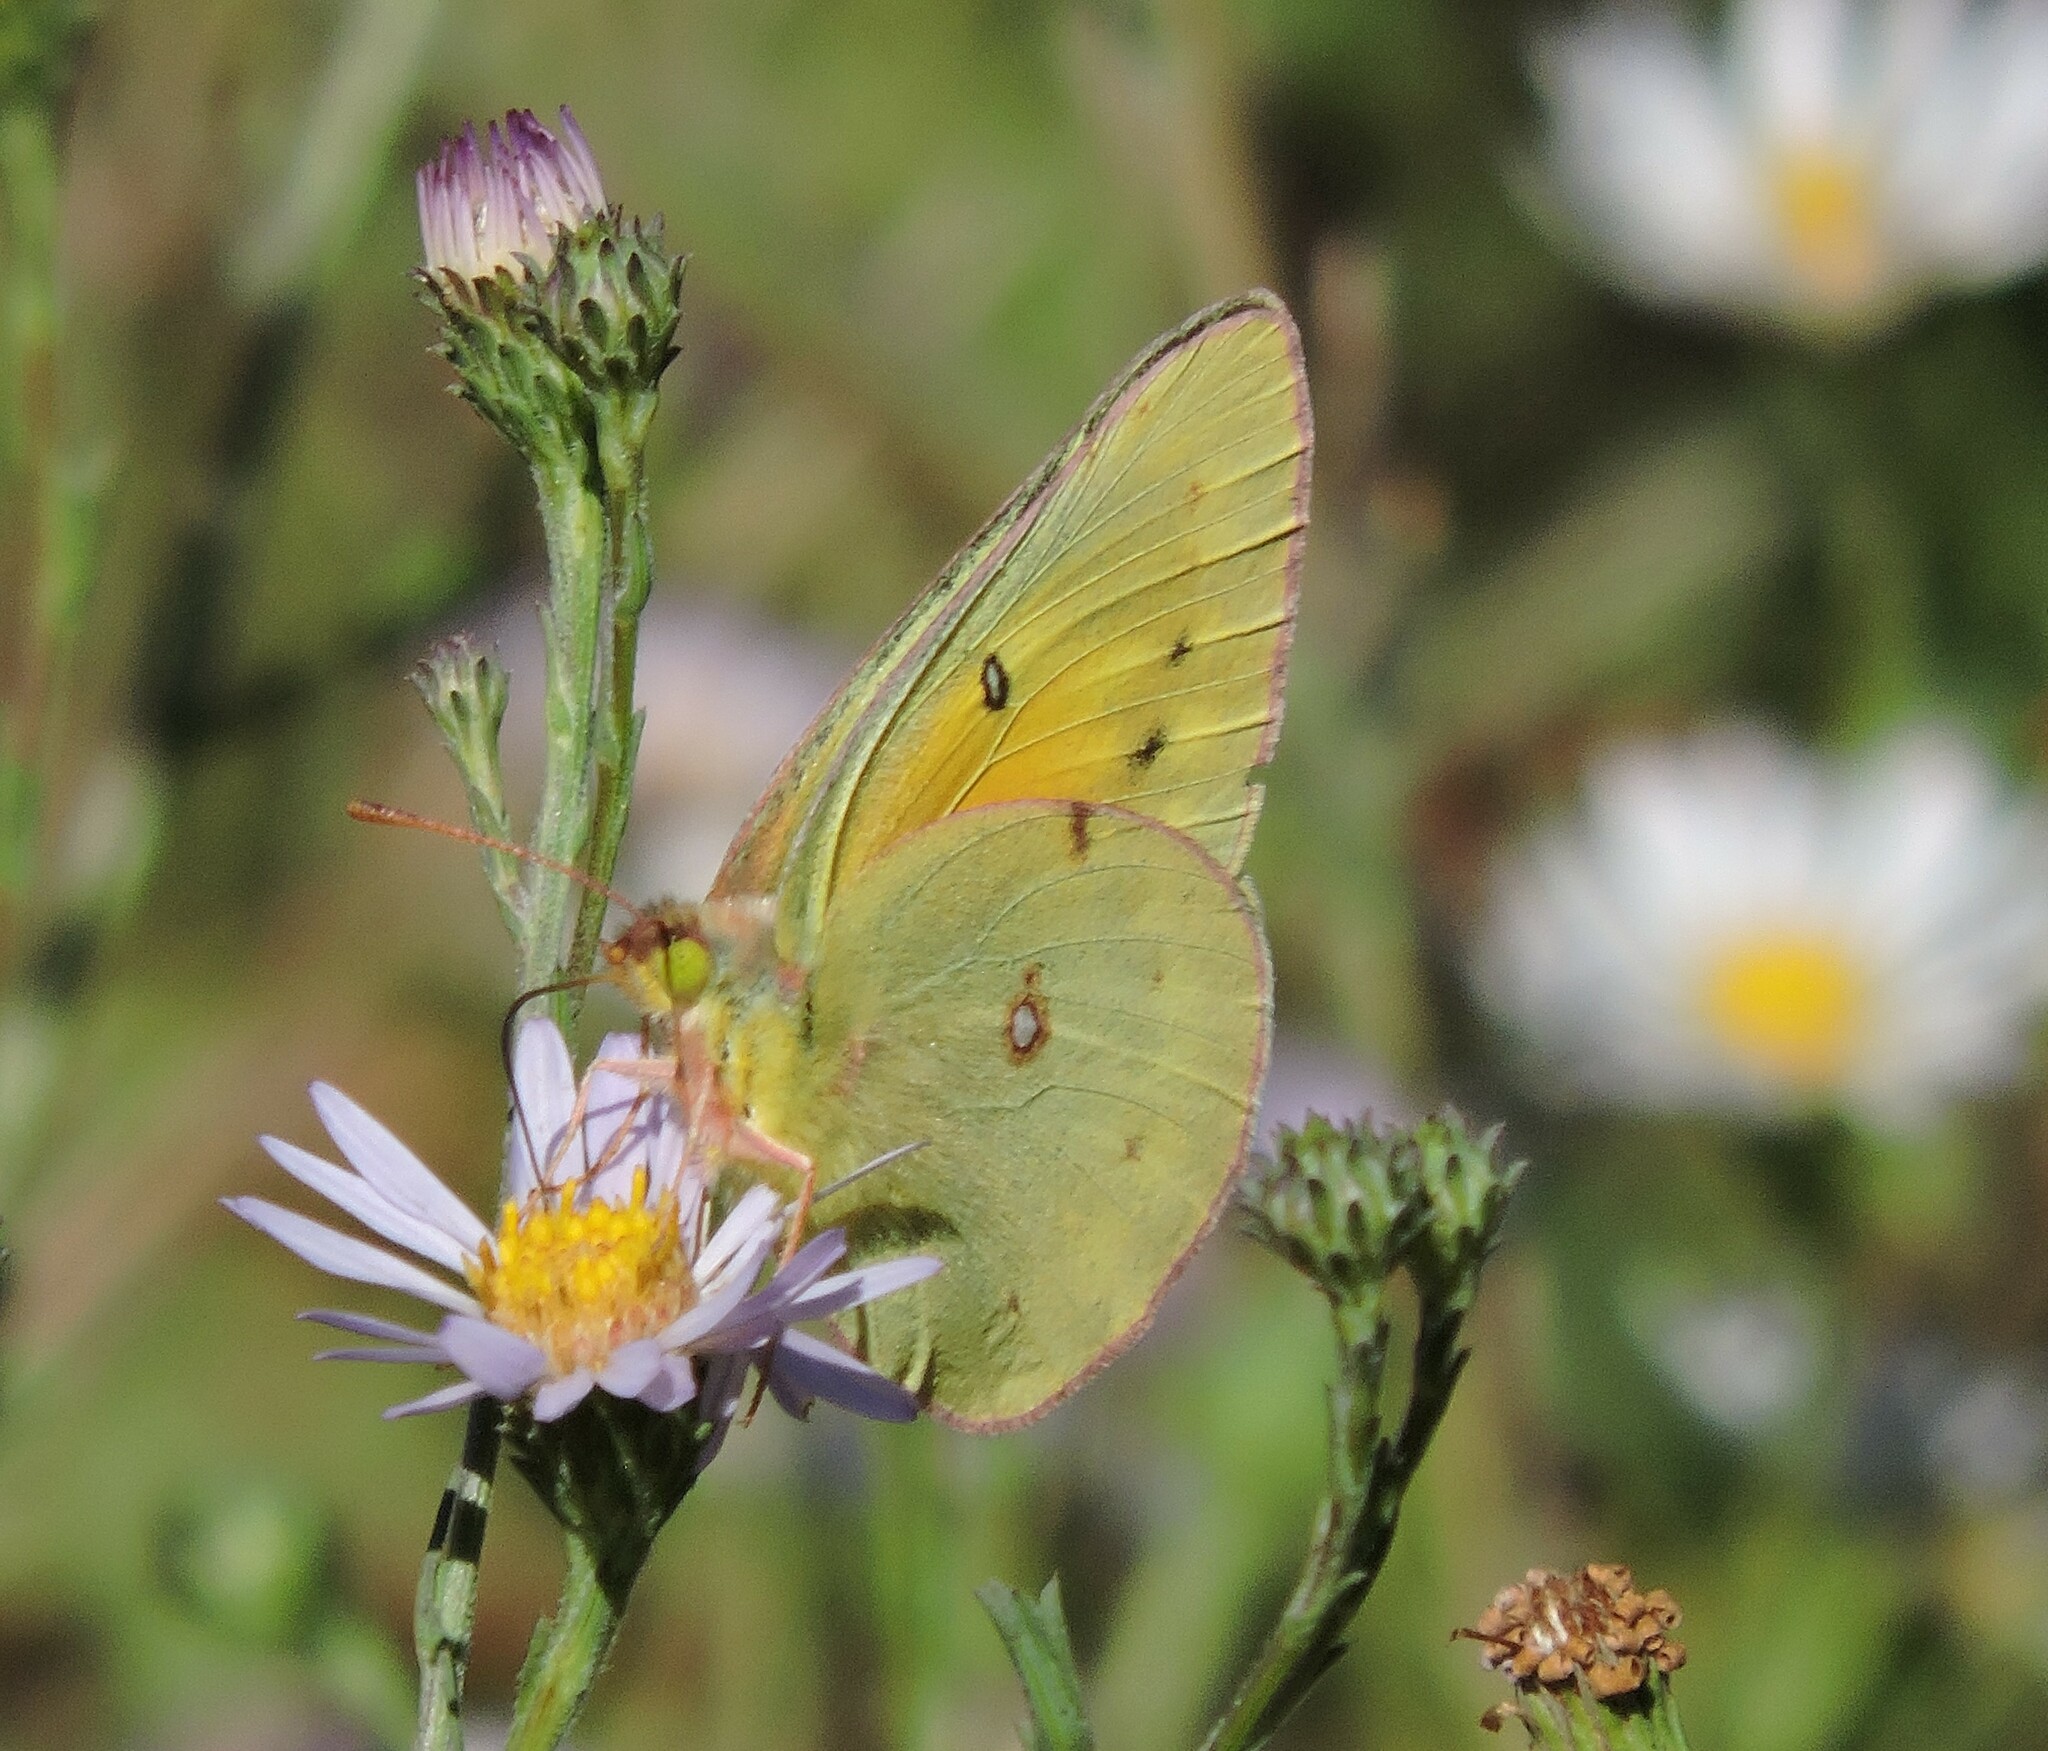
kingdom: Animalia
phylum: Arthropoda
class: Insecta
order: Lepidoptera
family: Pieridae
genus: Colias
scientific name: Colias eurytheme
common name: Alfalfa butterfly
